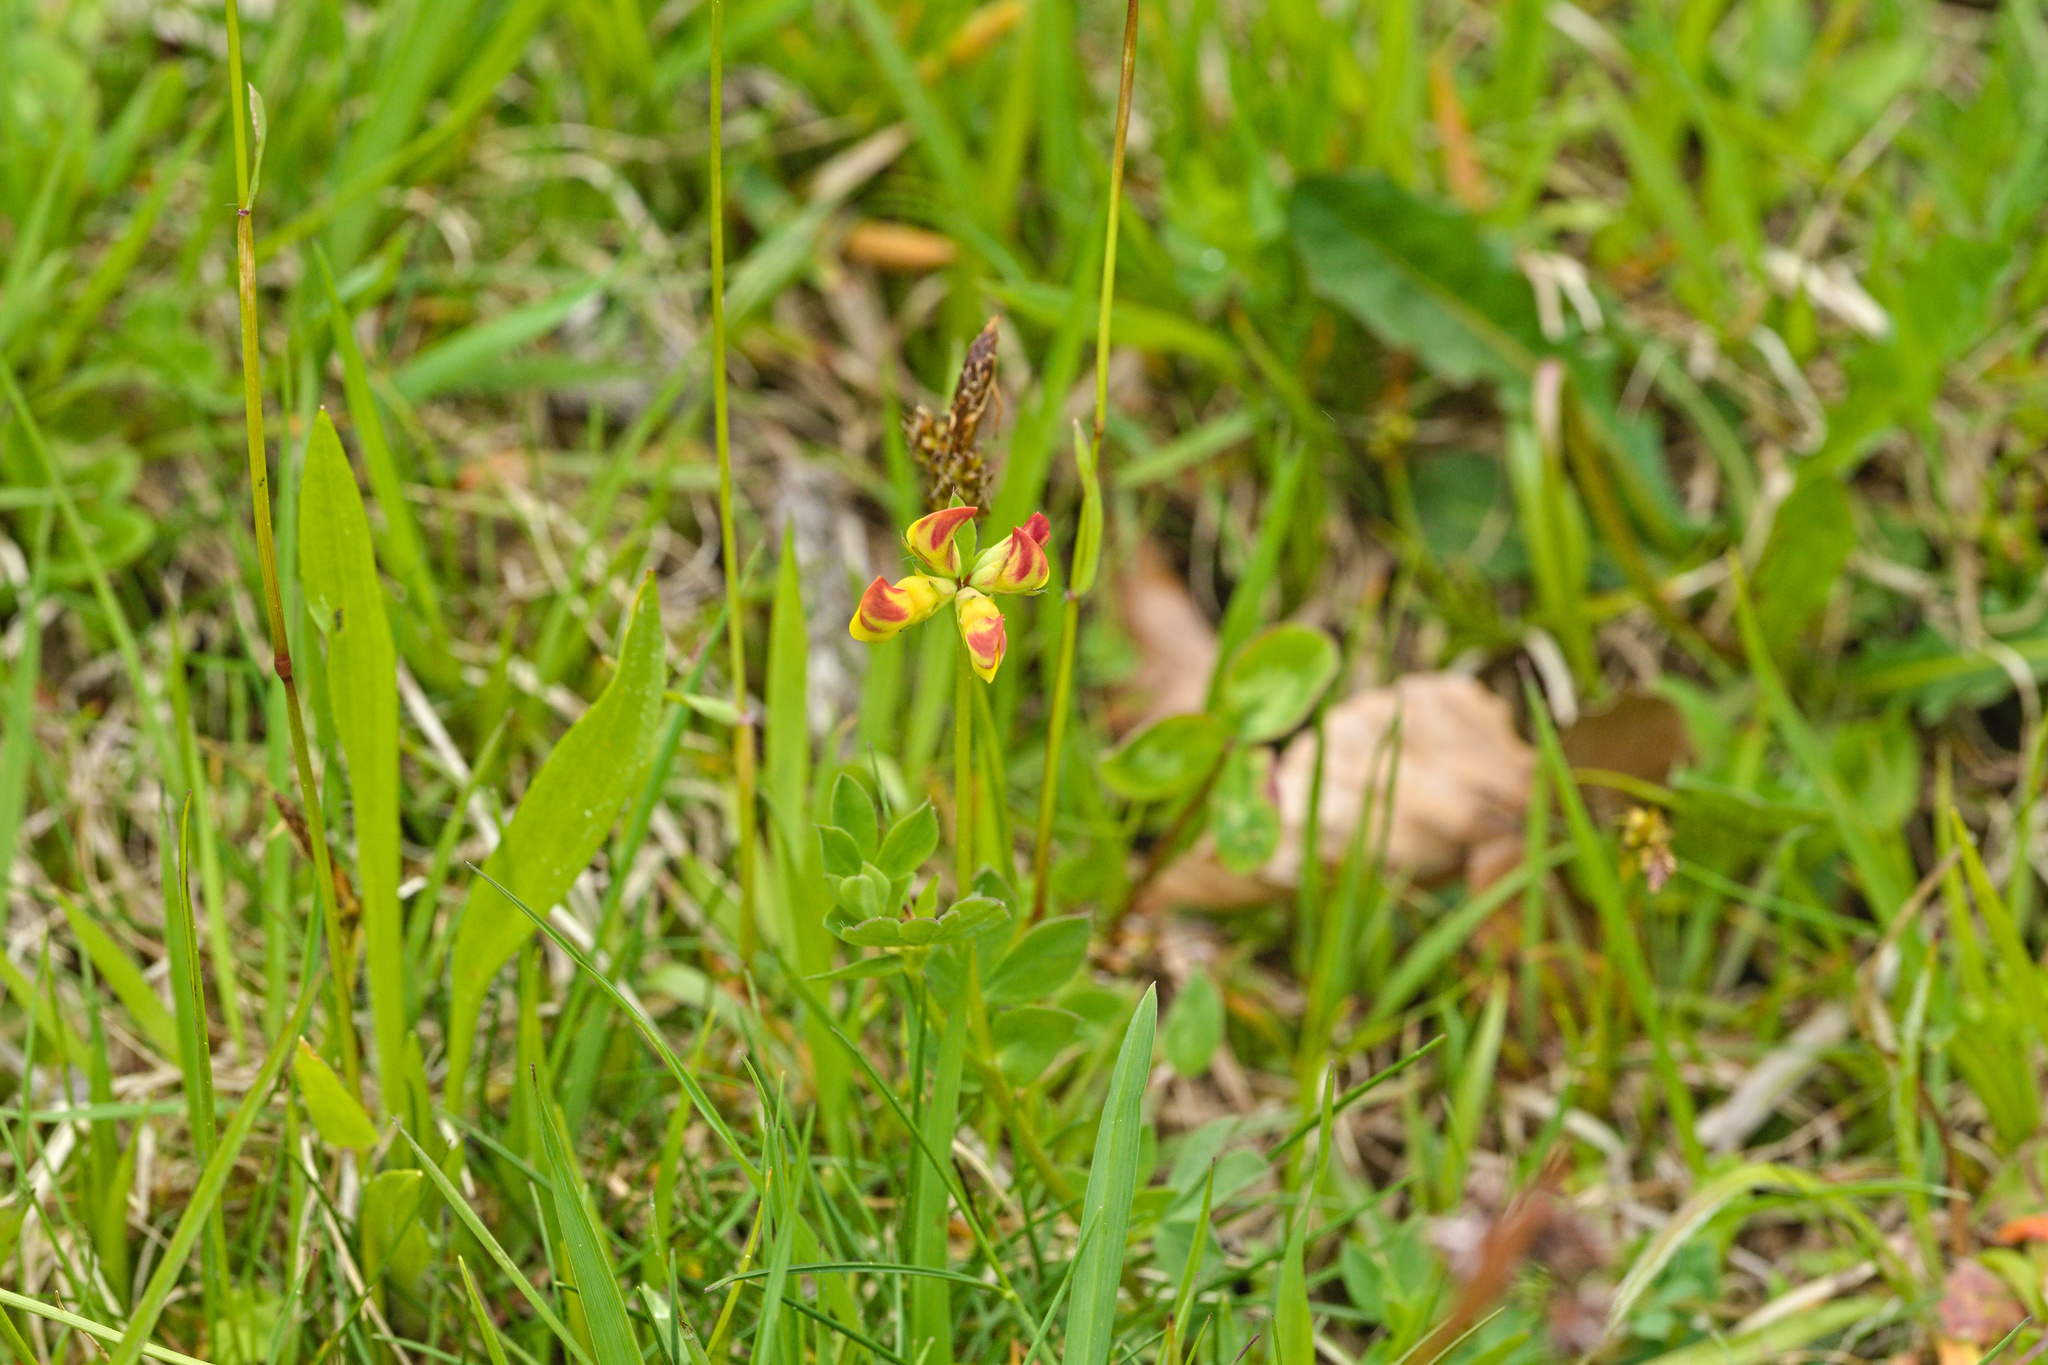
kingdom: Plantae
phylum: Tracheophyta
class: Magnoliopsida
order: Fabales
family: Fabaceae
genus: Lotus
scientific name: Lotus corniculatus
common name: Common bird's-foot-trefoil
